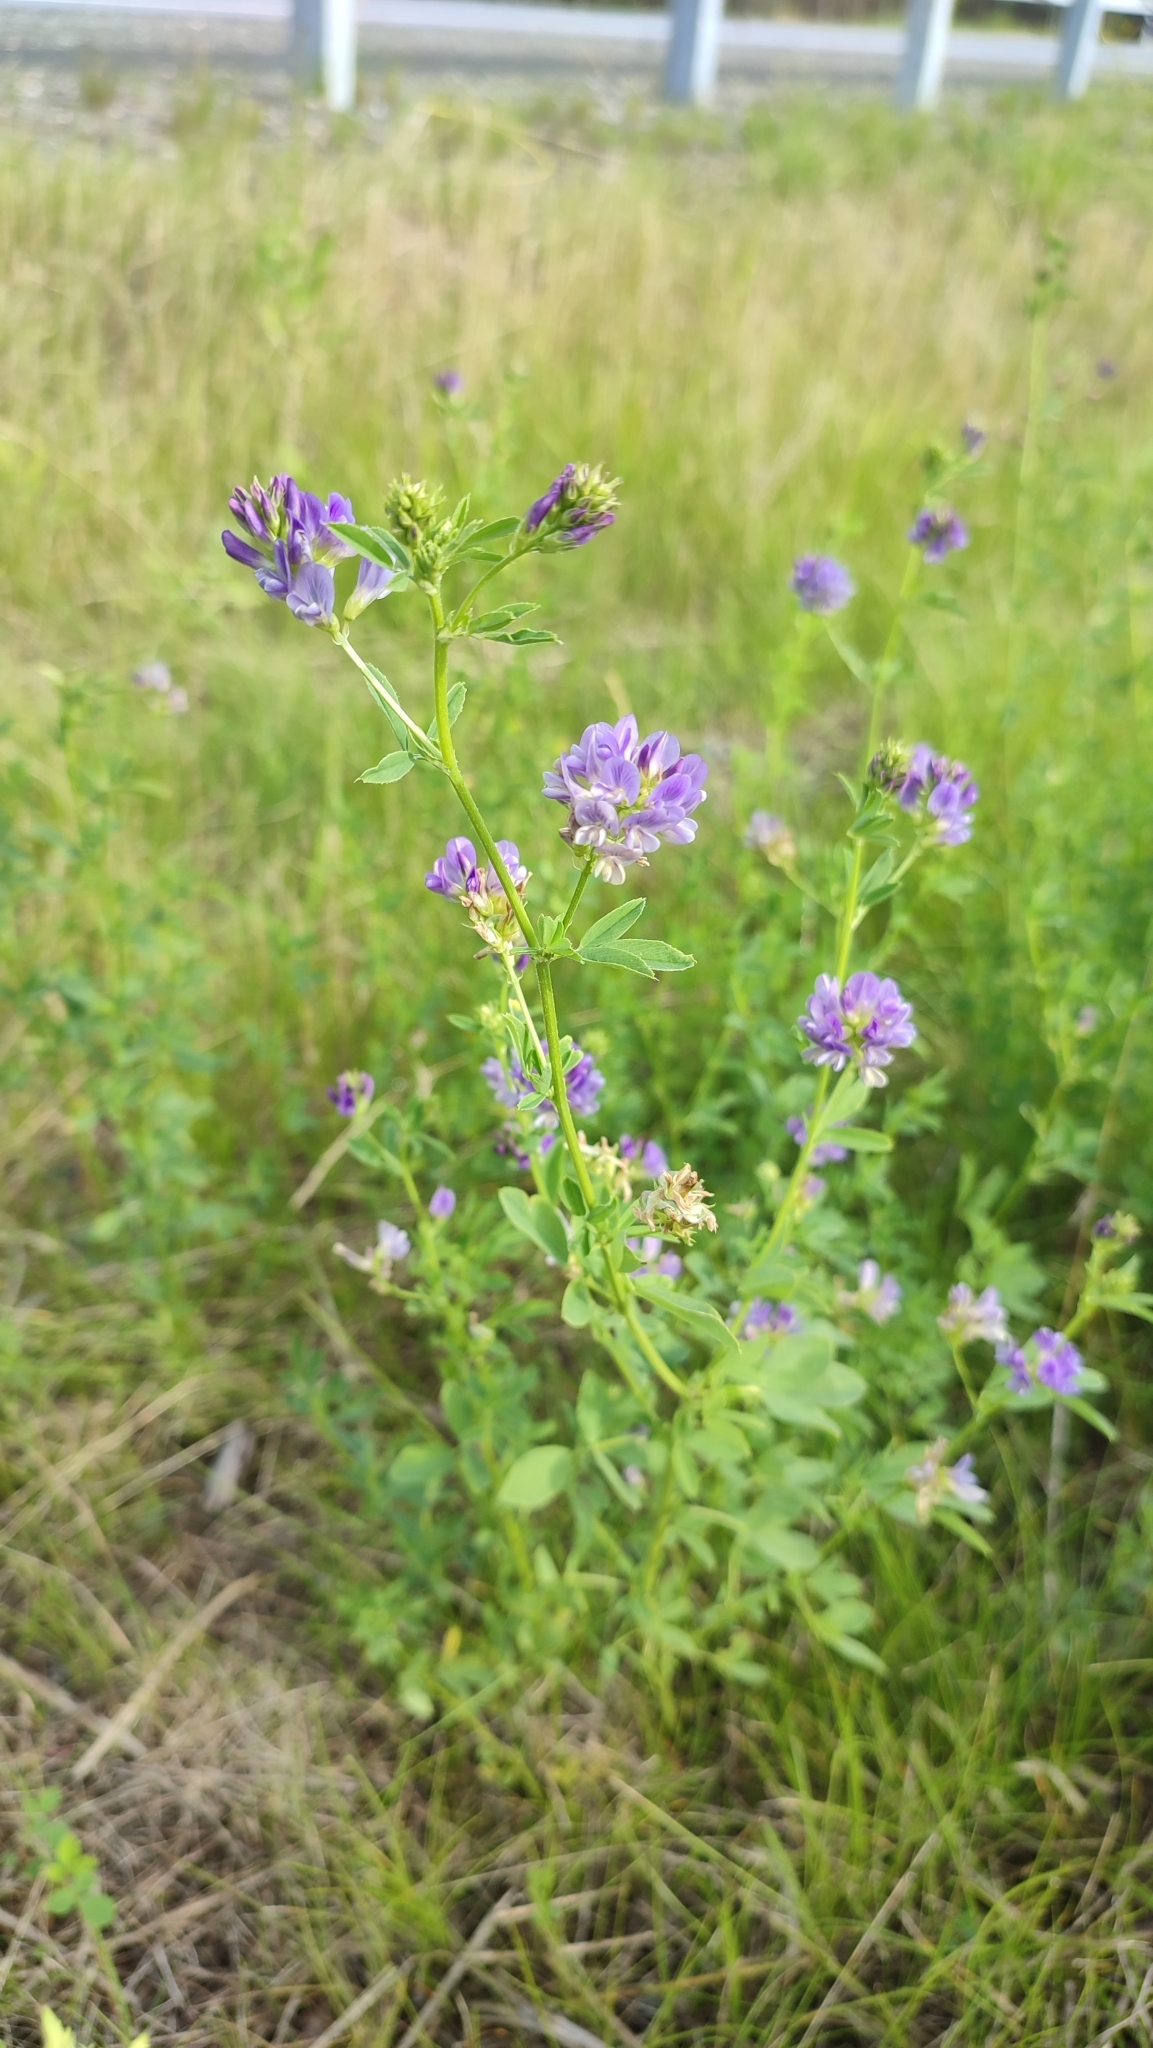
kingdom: Plantae
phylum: Tracheophyta
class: Magnoliopsida
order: Fabales
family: Fabaceae
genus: Medicago
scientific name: Medicago varia
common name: Sand lucerne
